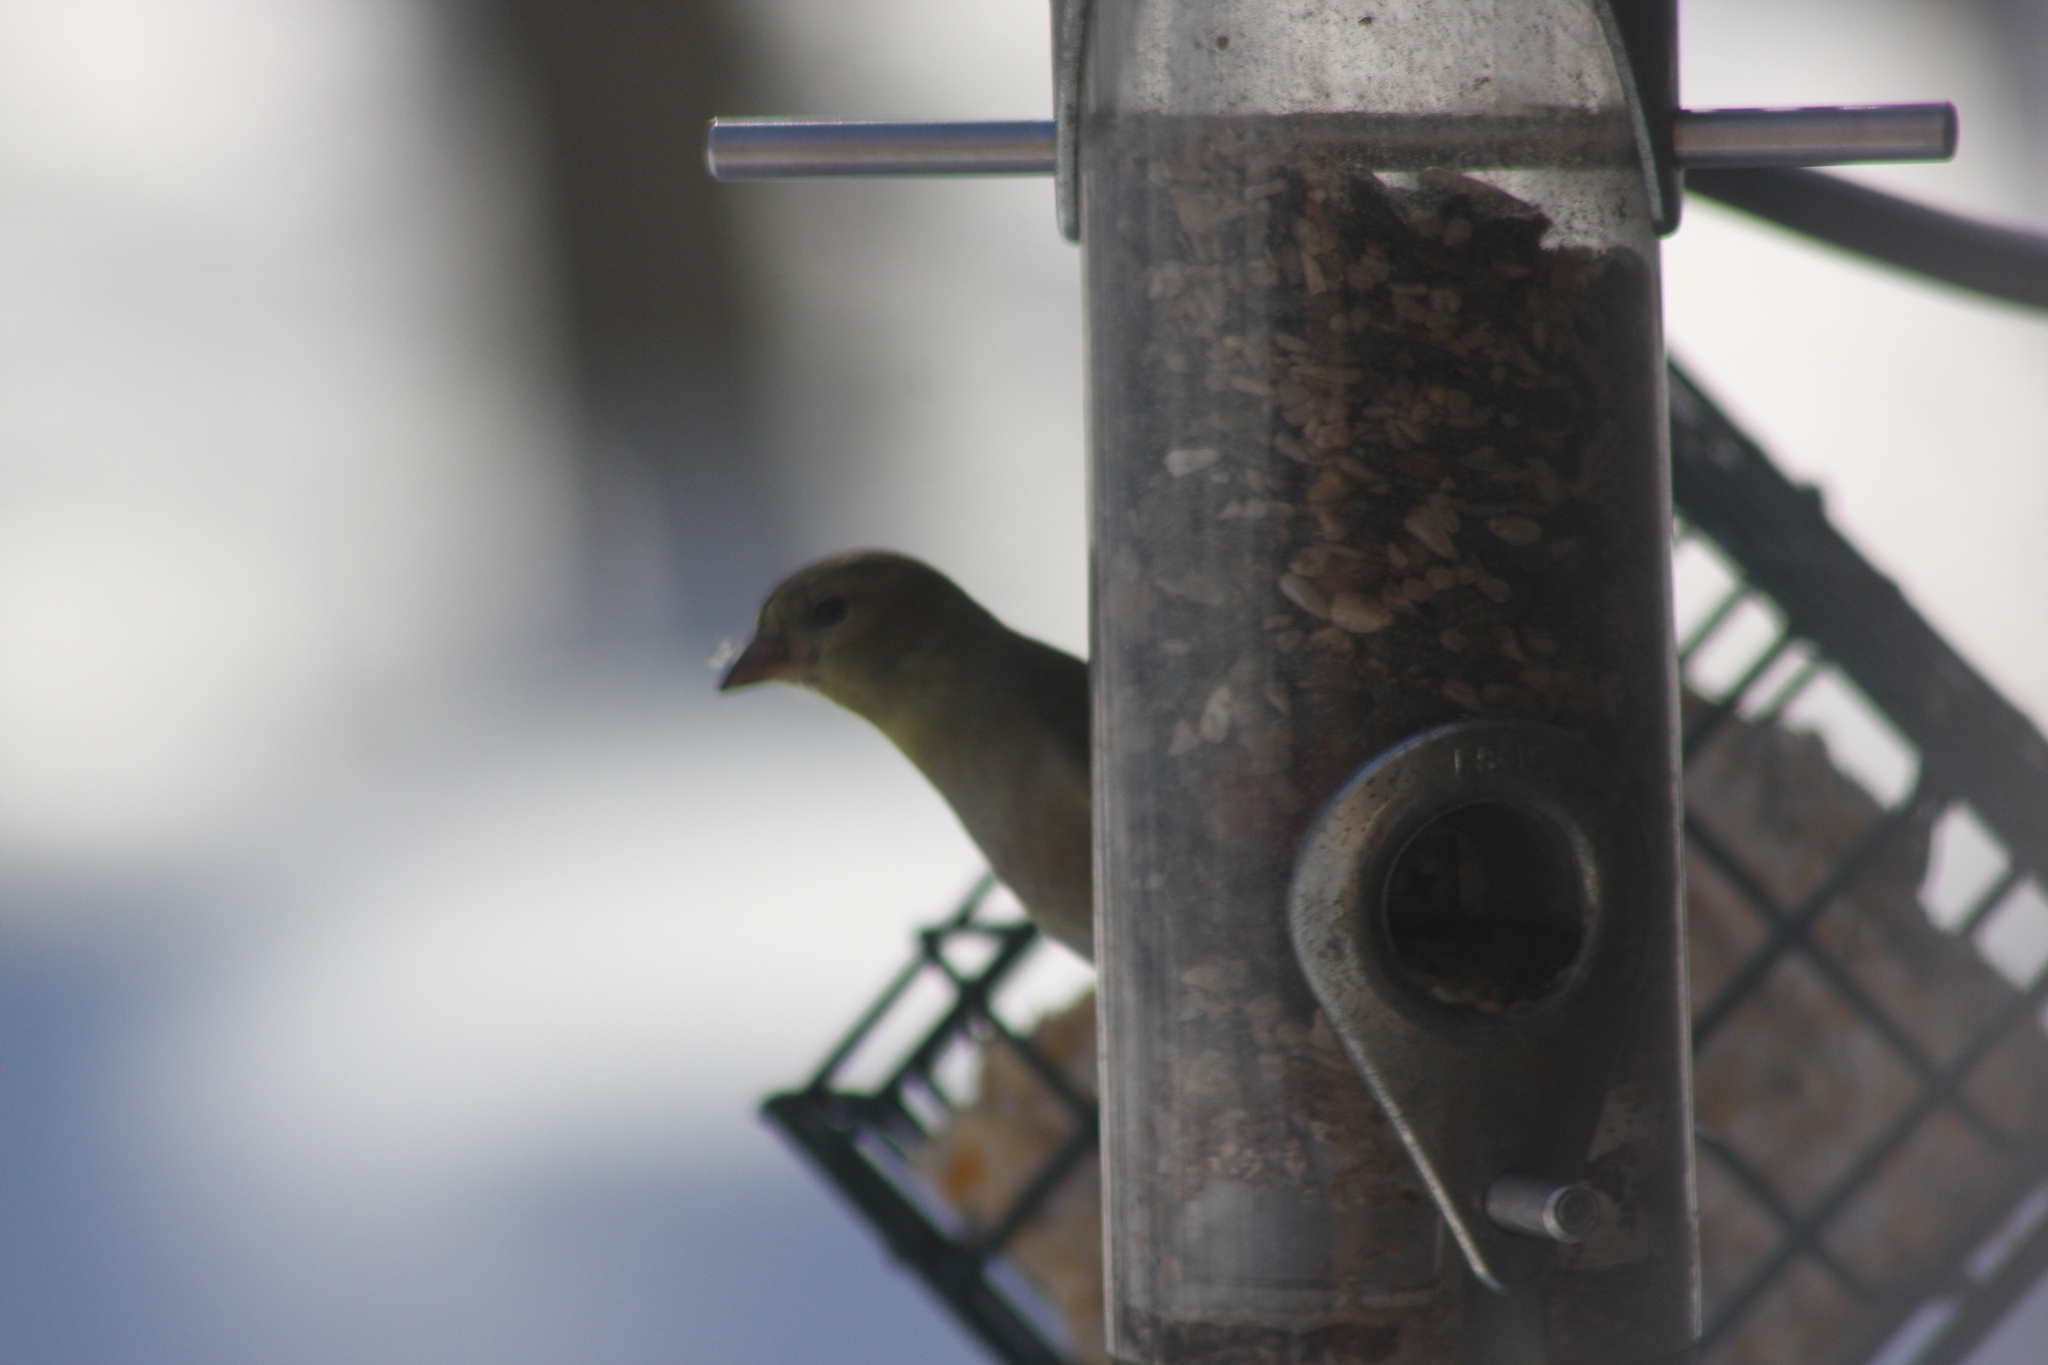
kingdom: Animalia
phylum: Chordata
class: Aves
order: Passeriformes
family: Fringillidae
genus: Spinus
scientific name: Spinus tristis
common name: American goldfinch
